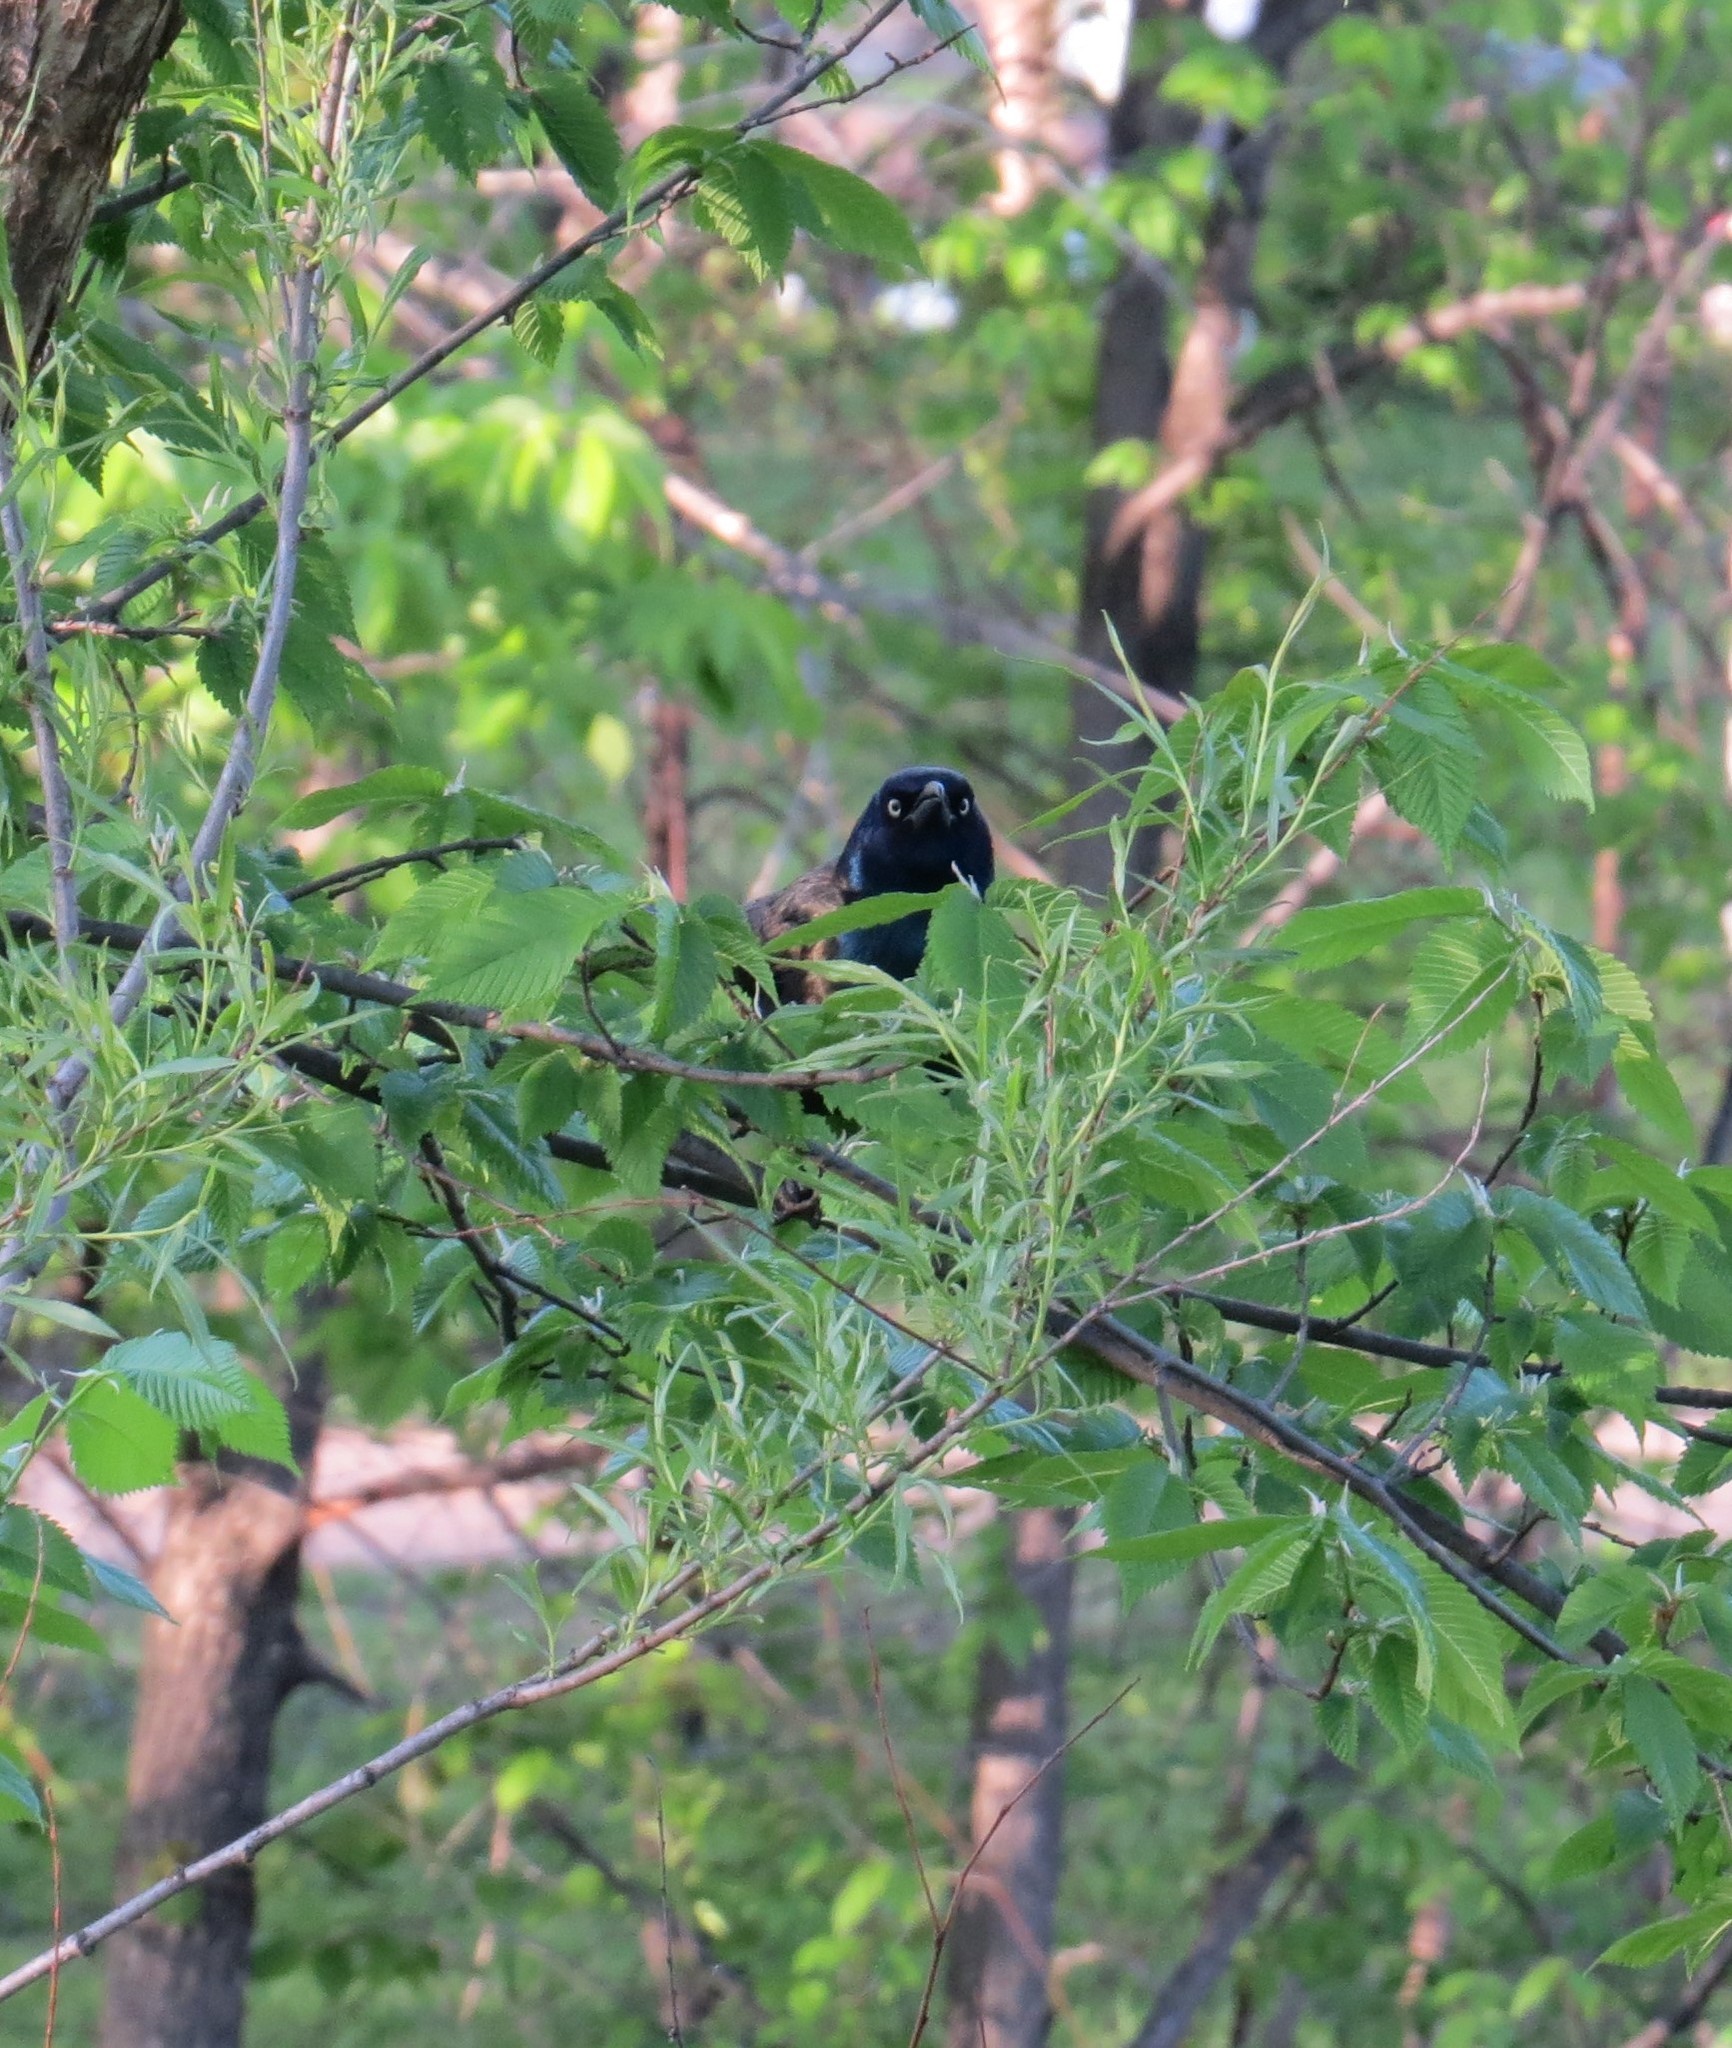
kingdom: Animalia
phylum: Chordata
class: Aves
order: Passeriformes
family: Icteridae
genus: Quiscalus
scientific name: Quiscalus quiscula
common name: Common grackle
